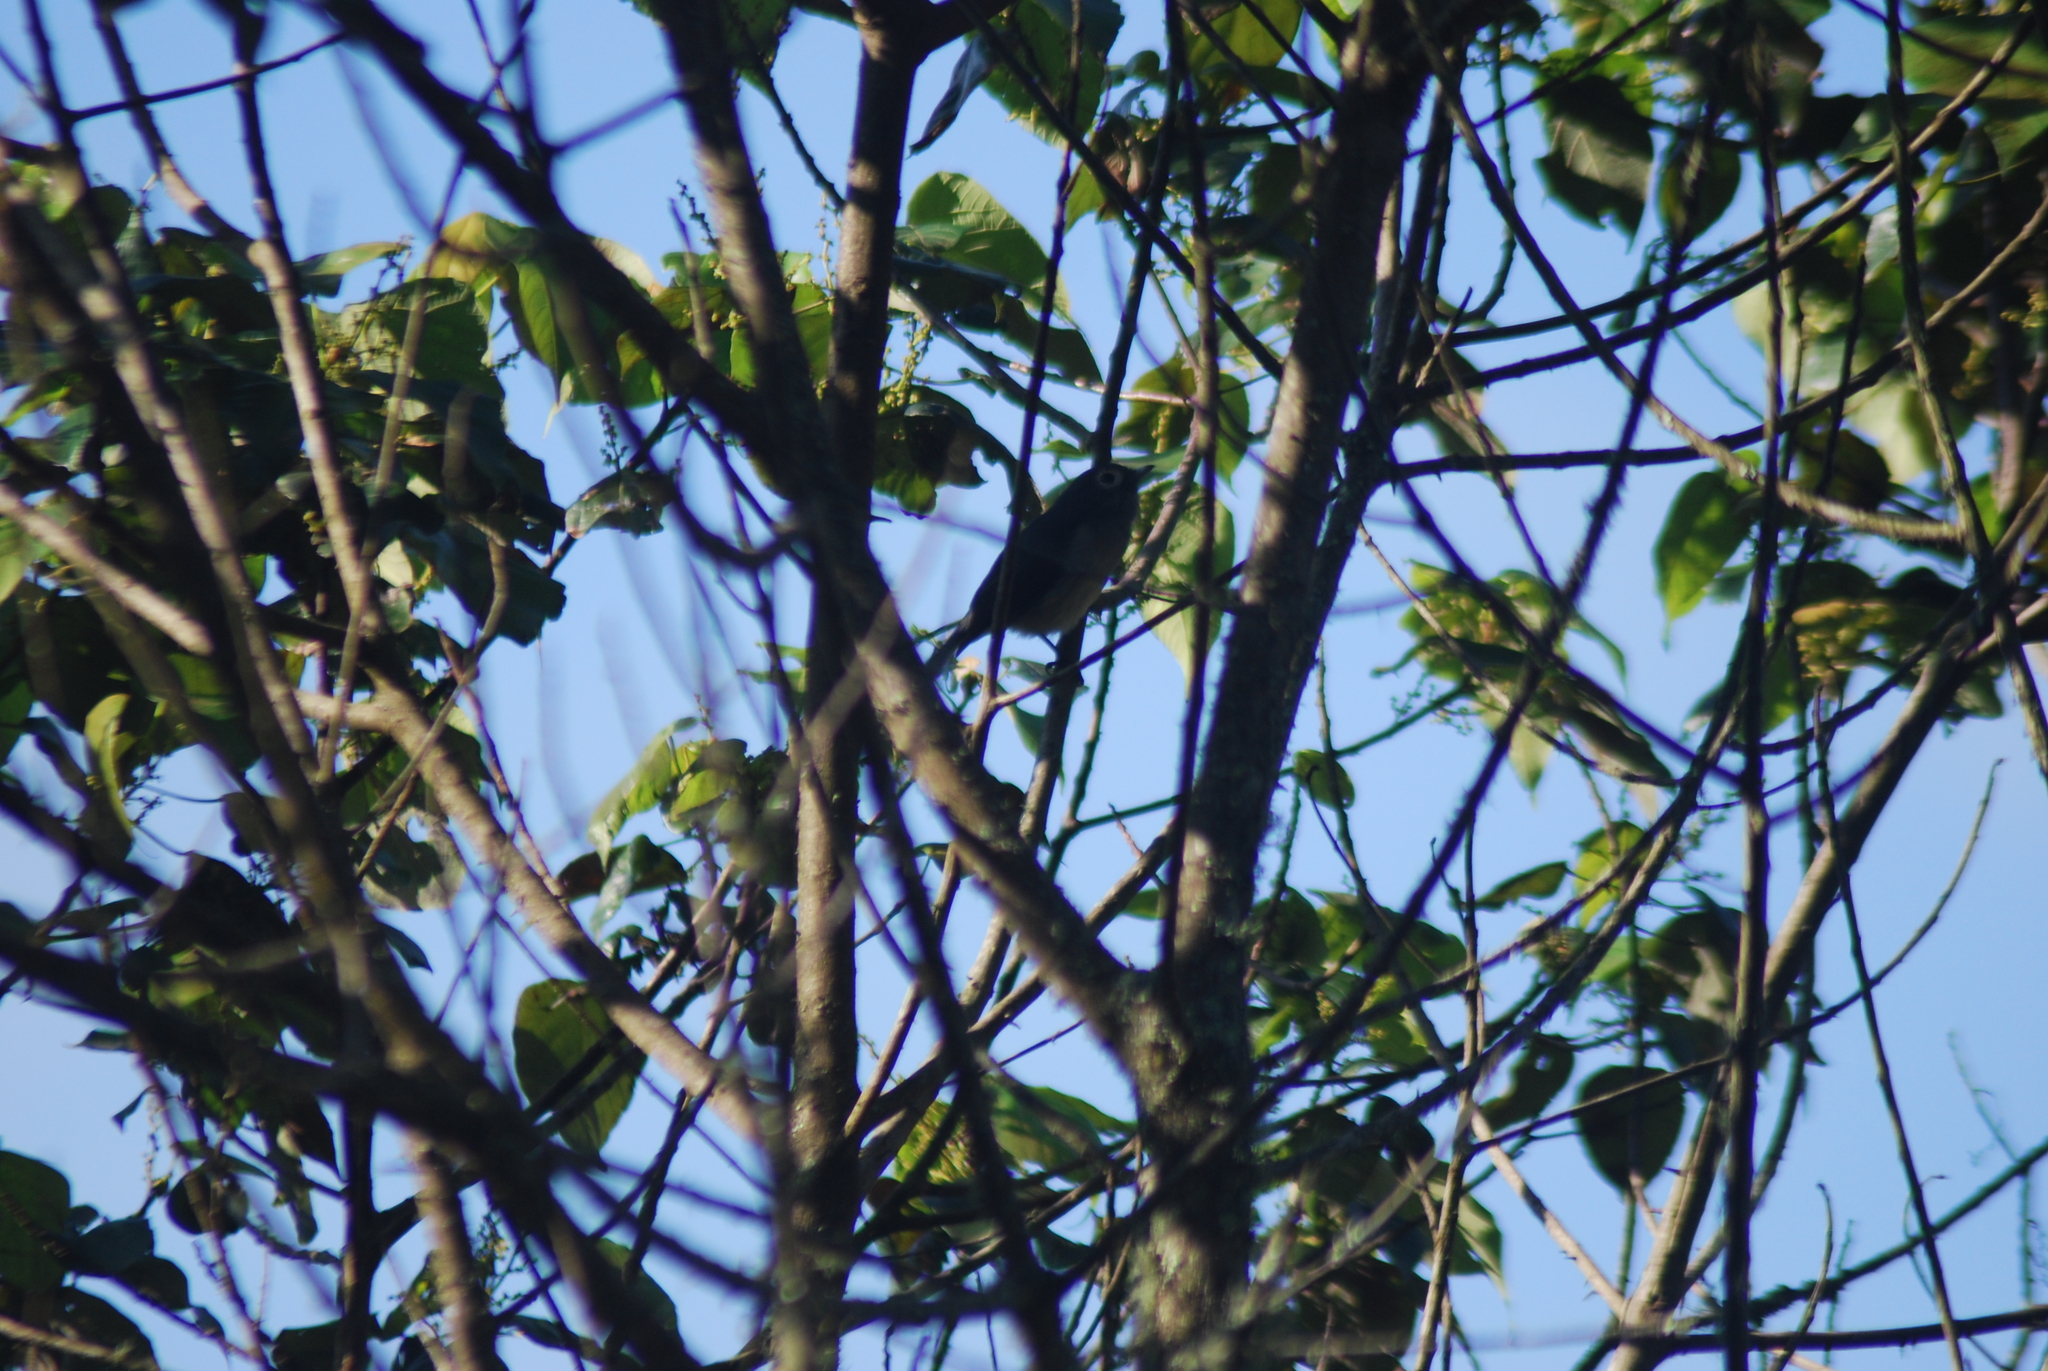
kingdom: Animalia
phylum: Chordata
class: Aves
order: Passeriformes
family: Zosteropidae
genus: Zosterops
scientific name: Zosterops eurycricotus
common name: Broad-ringed white-eye
